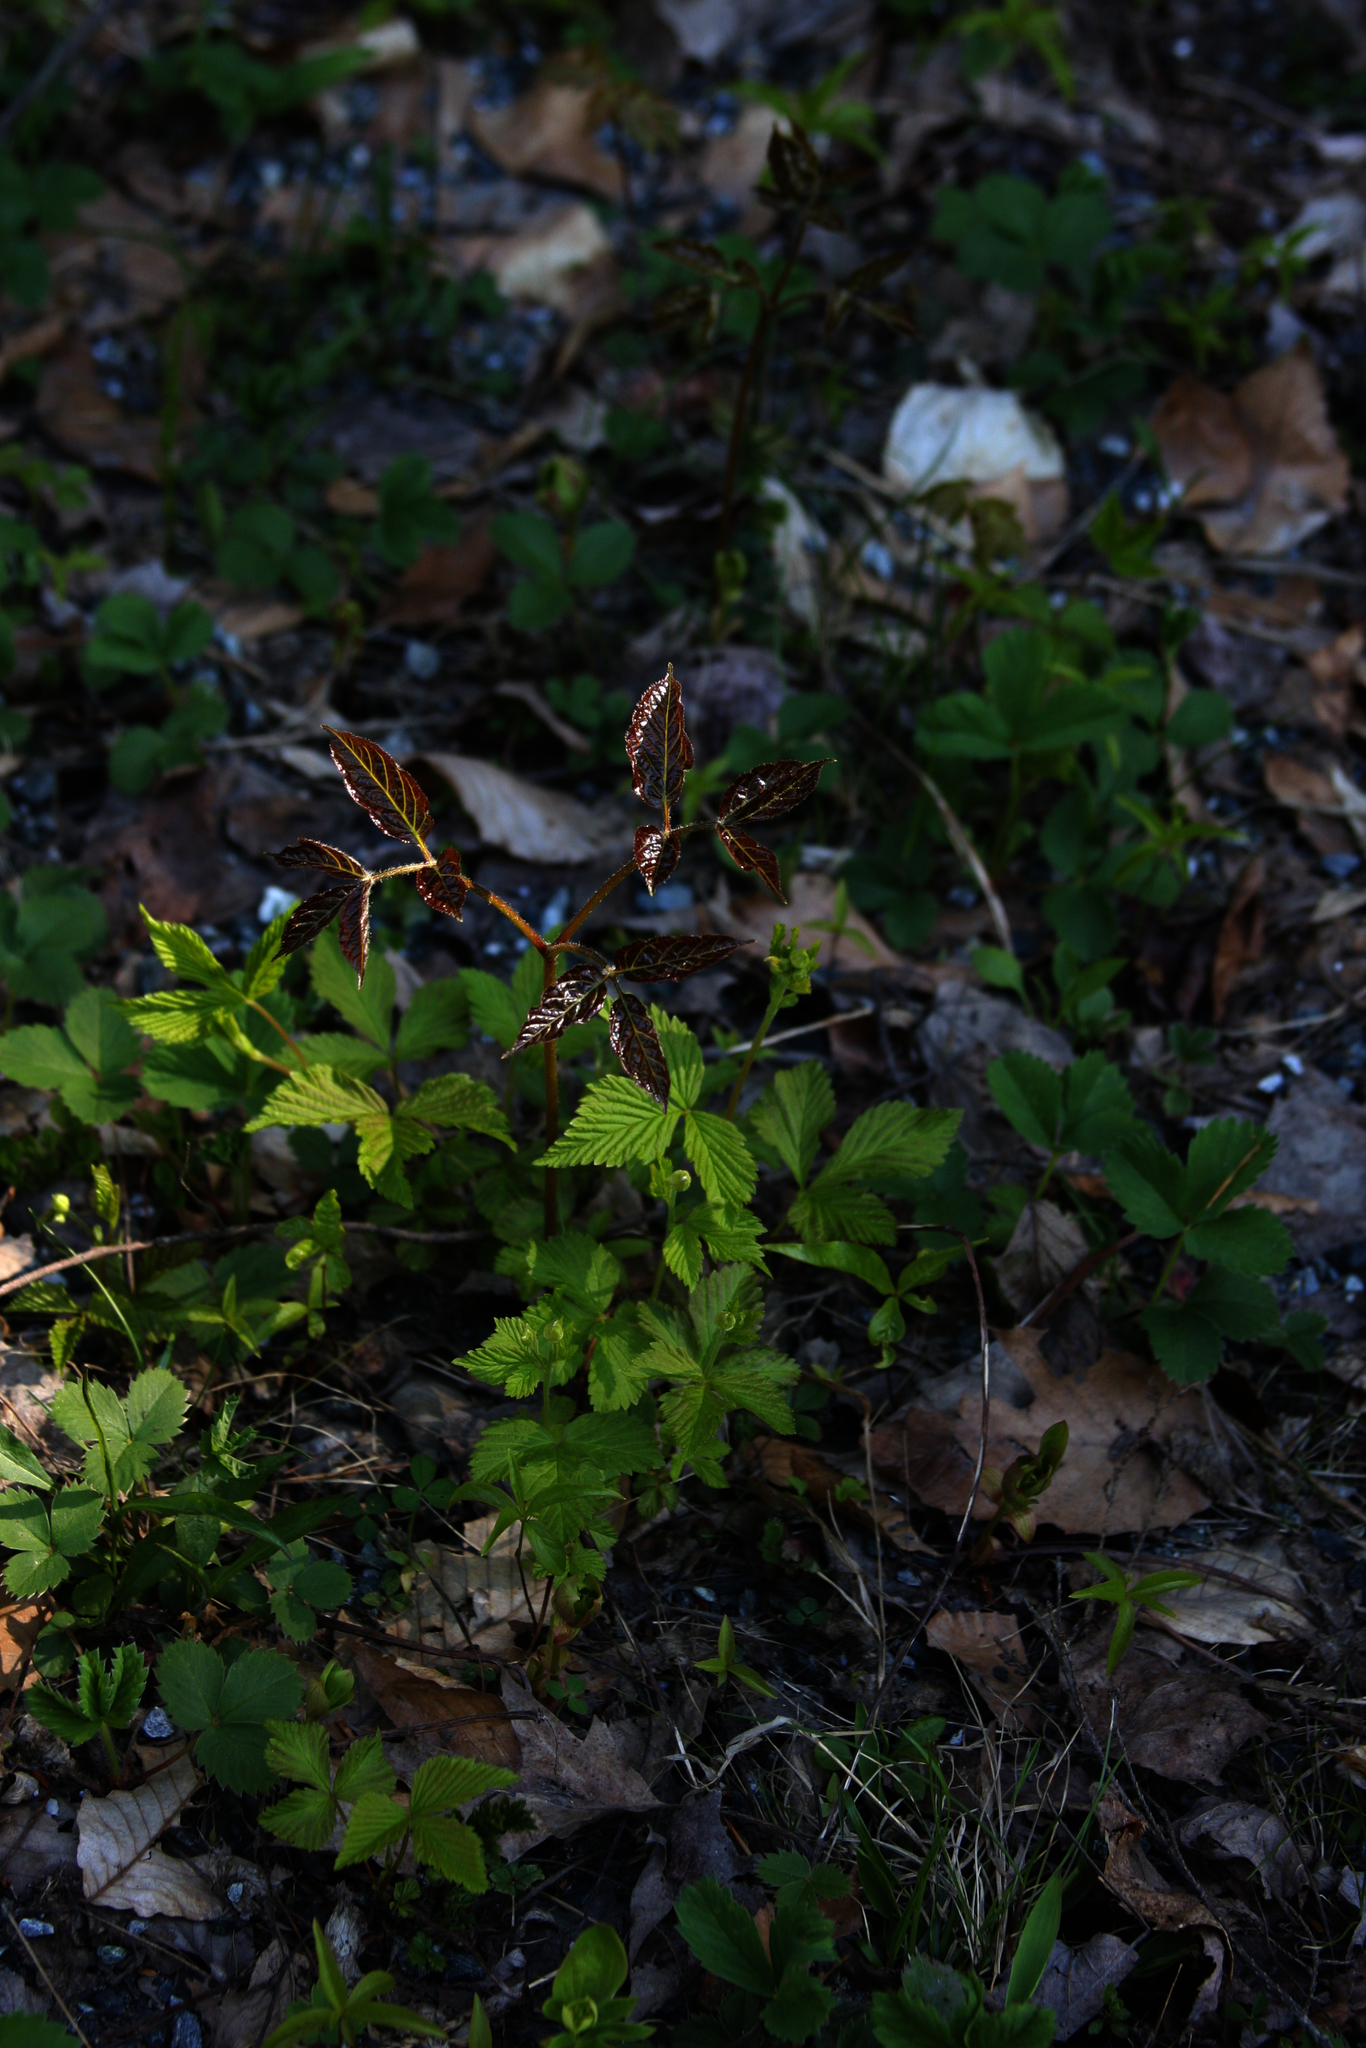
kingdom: Plantae
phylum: Tracheophyta
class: Magnoliopsida
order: Apiales
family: Araliaceae
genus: Aralia
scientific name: Aralia nudicaulis
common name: Wild sarsaparilla
